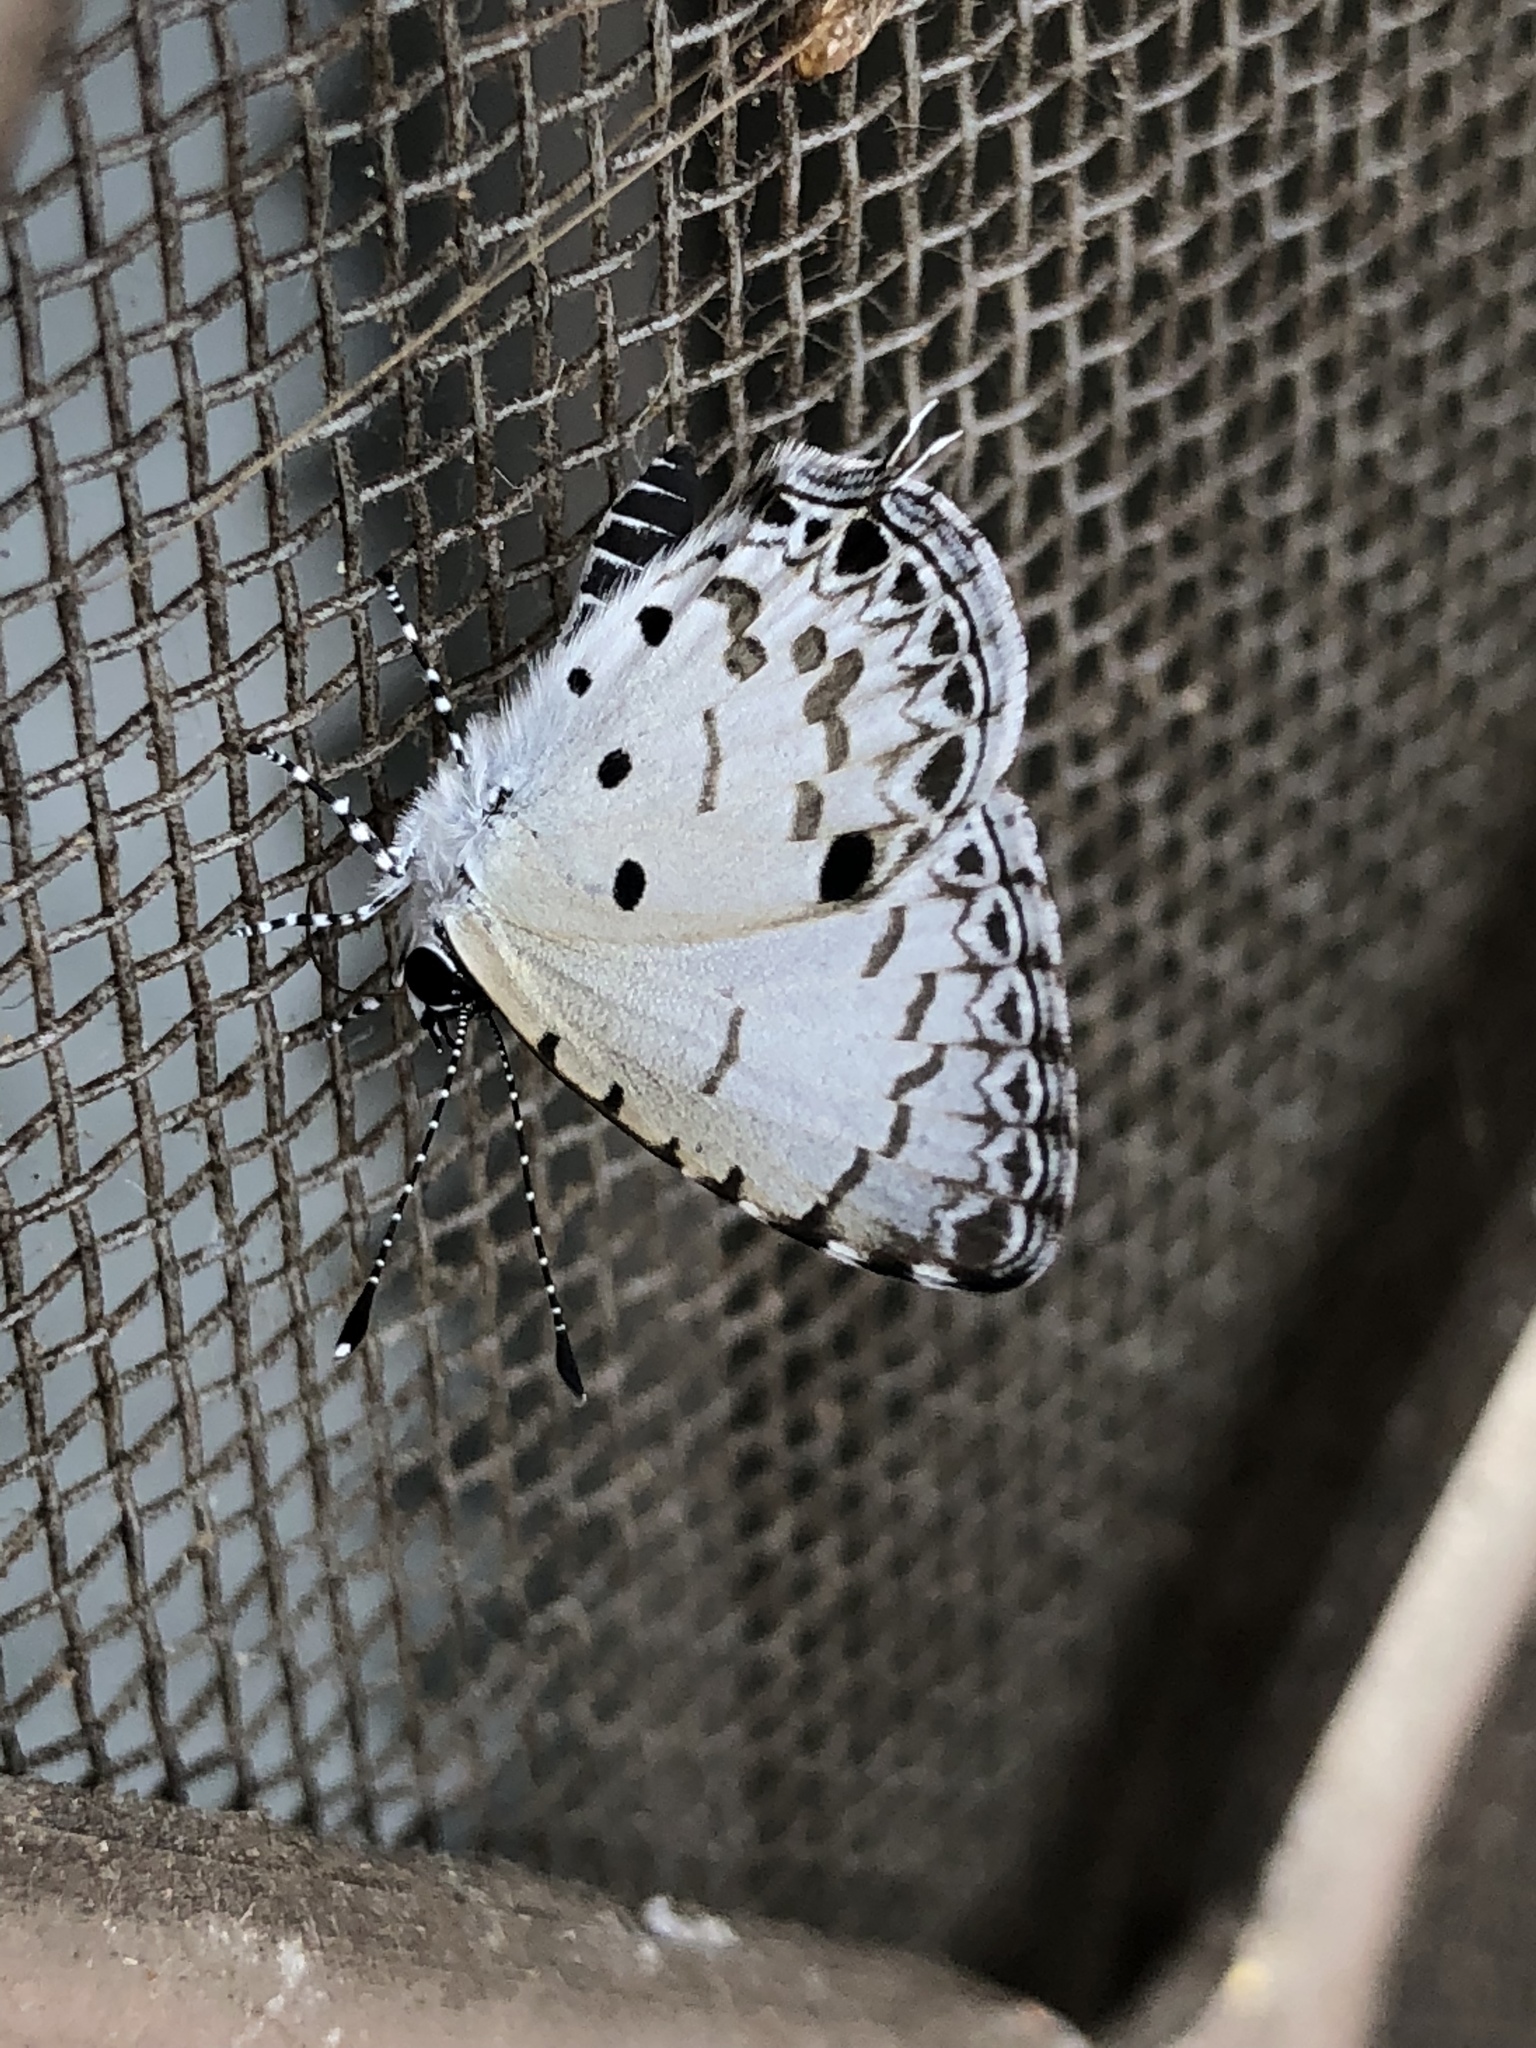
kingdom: Animalia
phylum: Arthropoda
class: Insecta
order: Lepidoptera
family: Lycaenidae
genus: Megisba
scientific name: Megisba malaya
